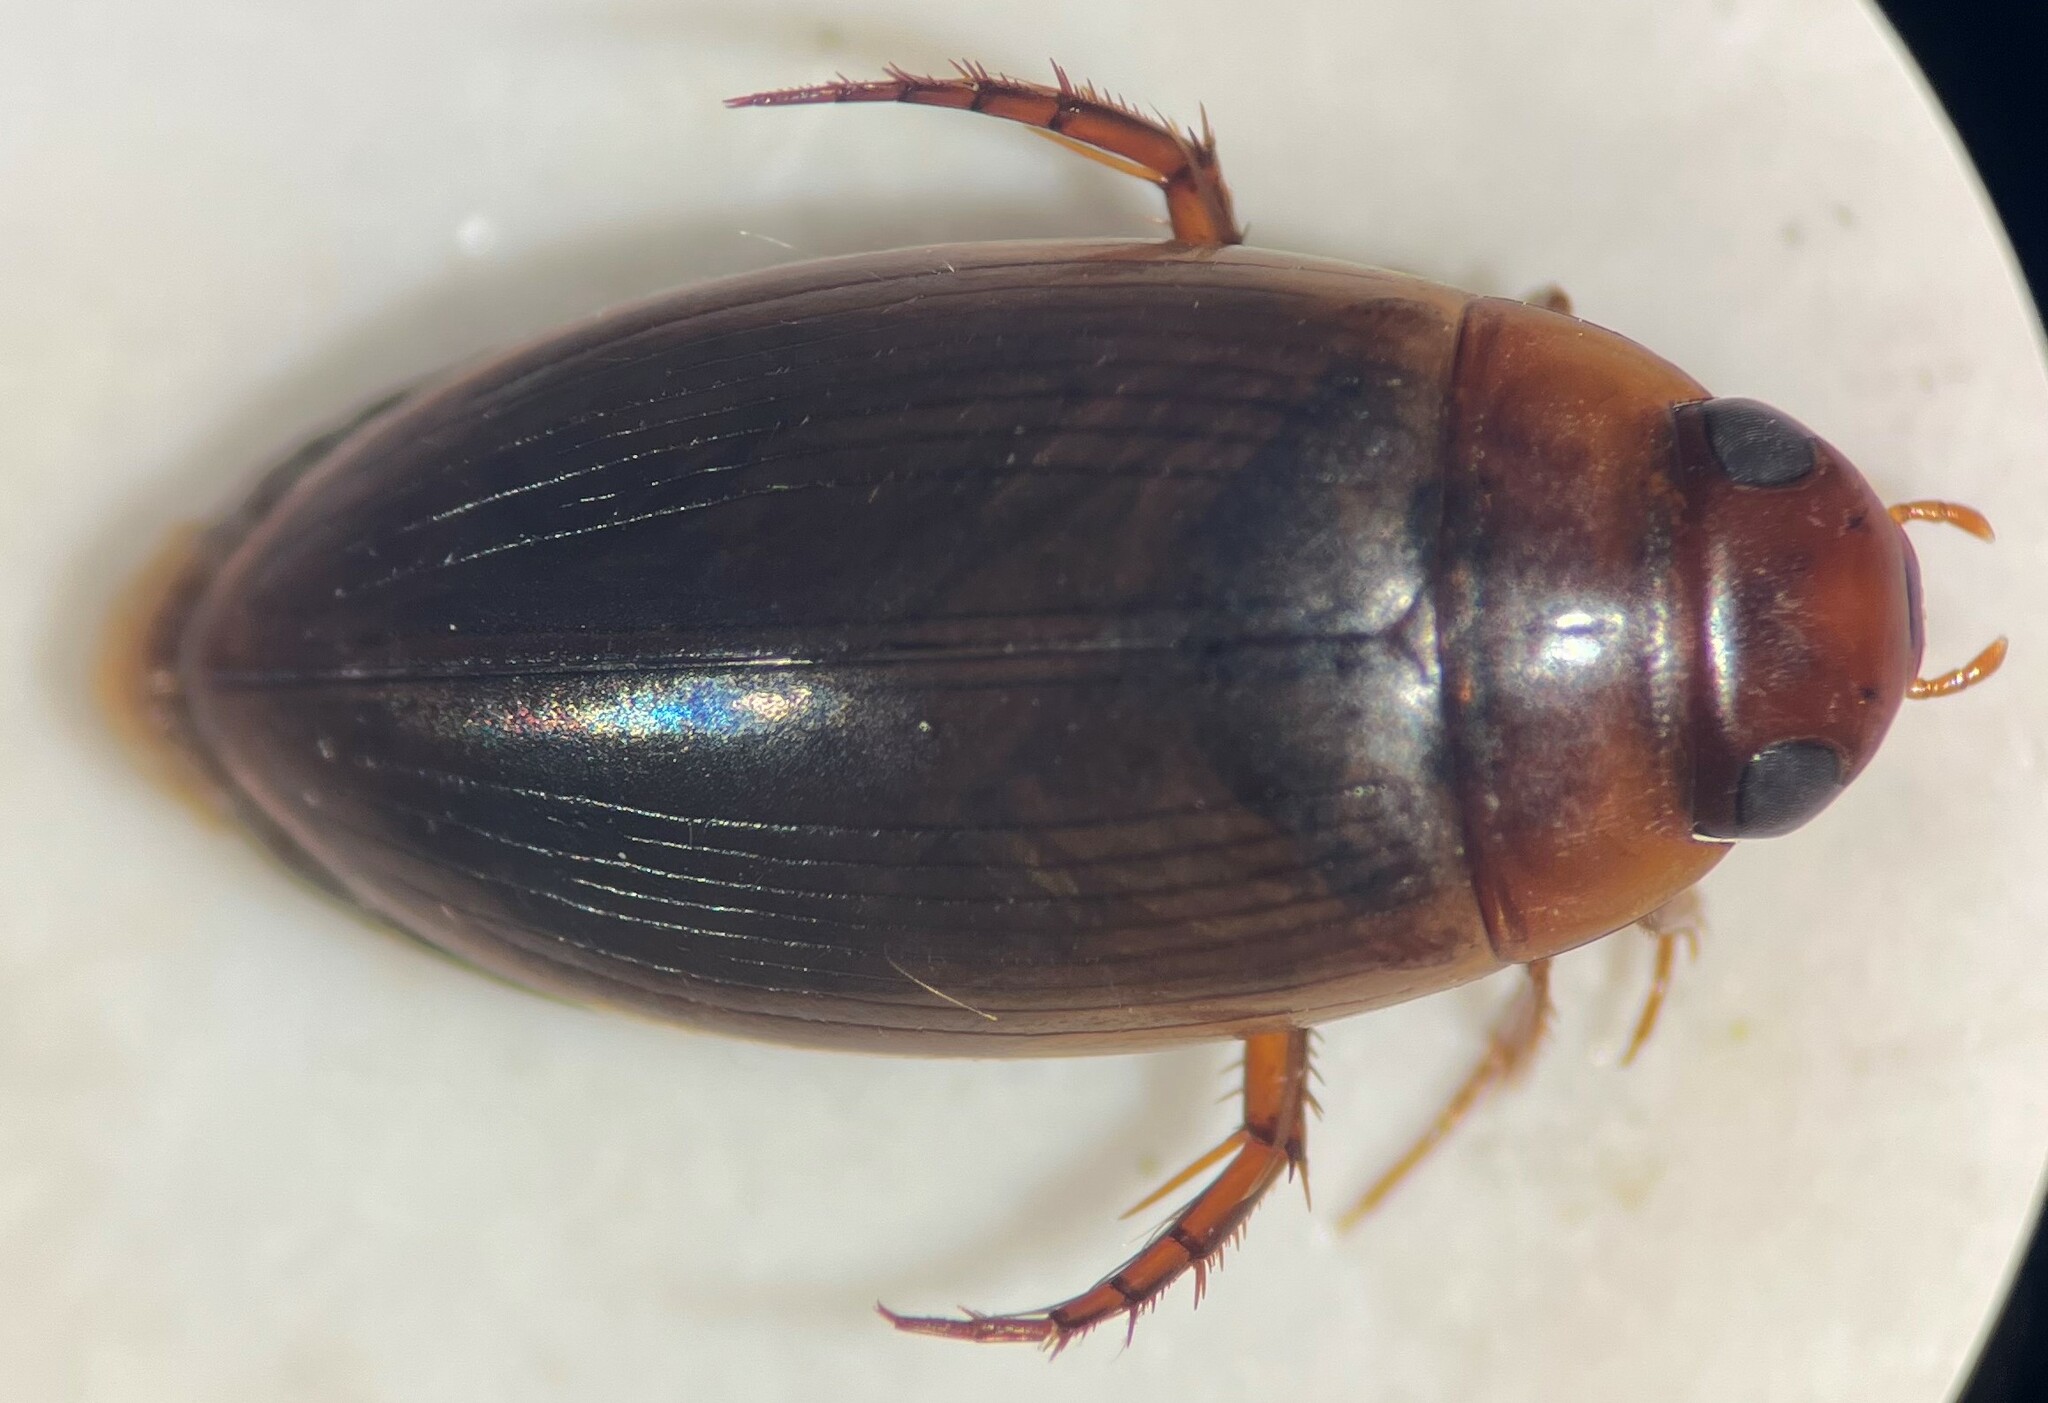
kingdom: Animalia
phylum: Arthropoda
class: Insecta
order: Coleoptera
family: Dytiscidae
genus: Copelatus
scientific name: Copelatus chevrolati
